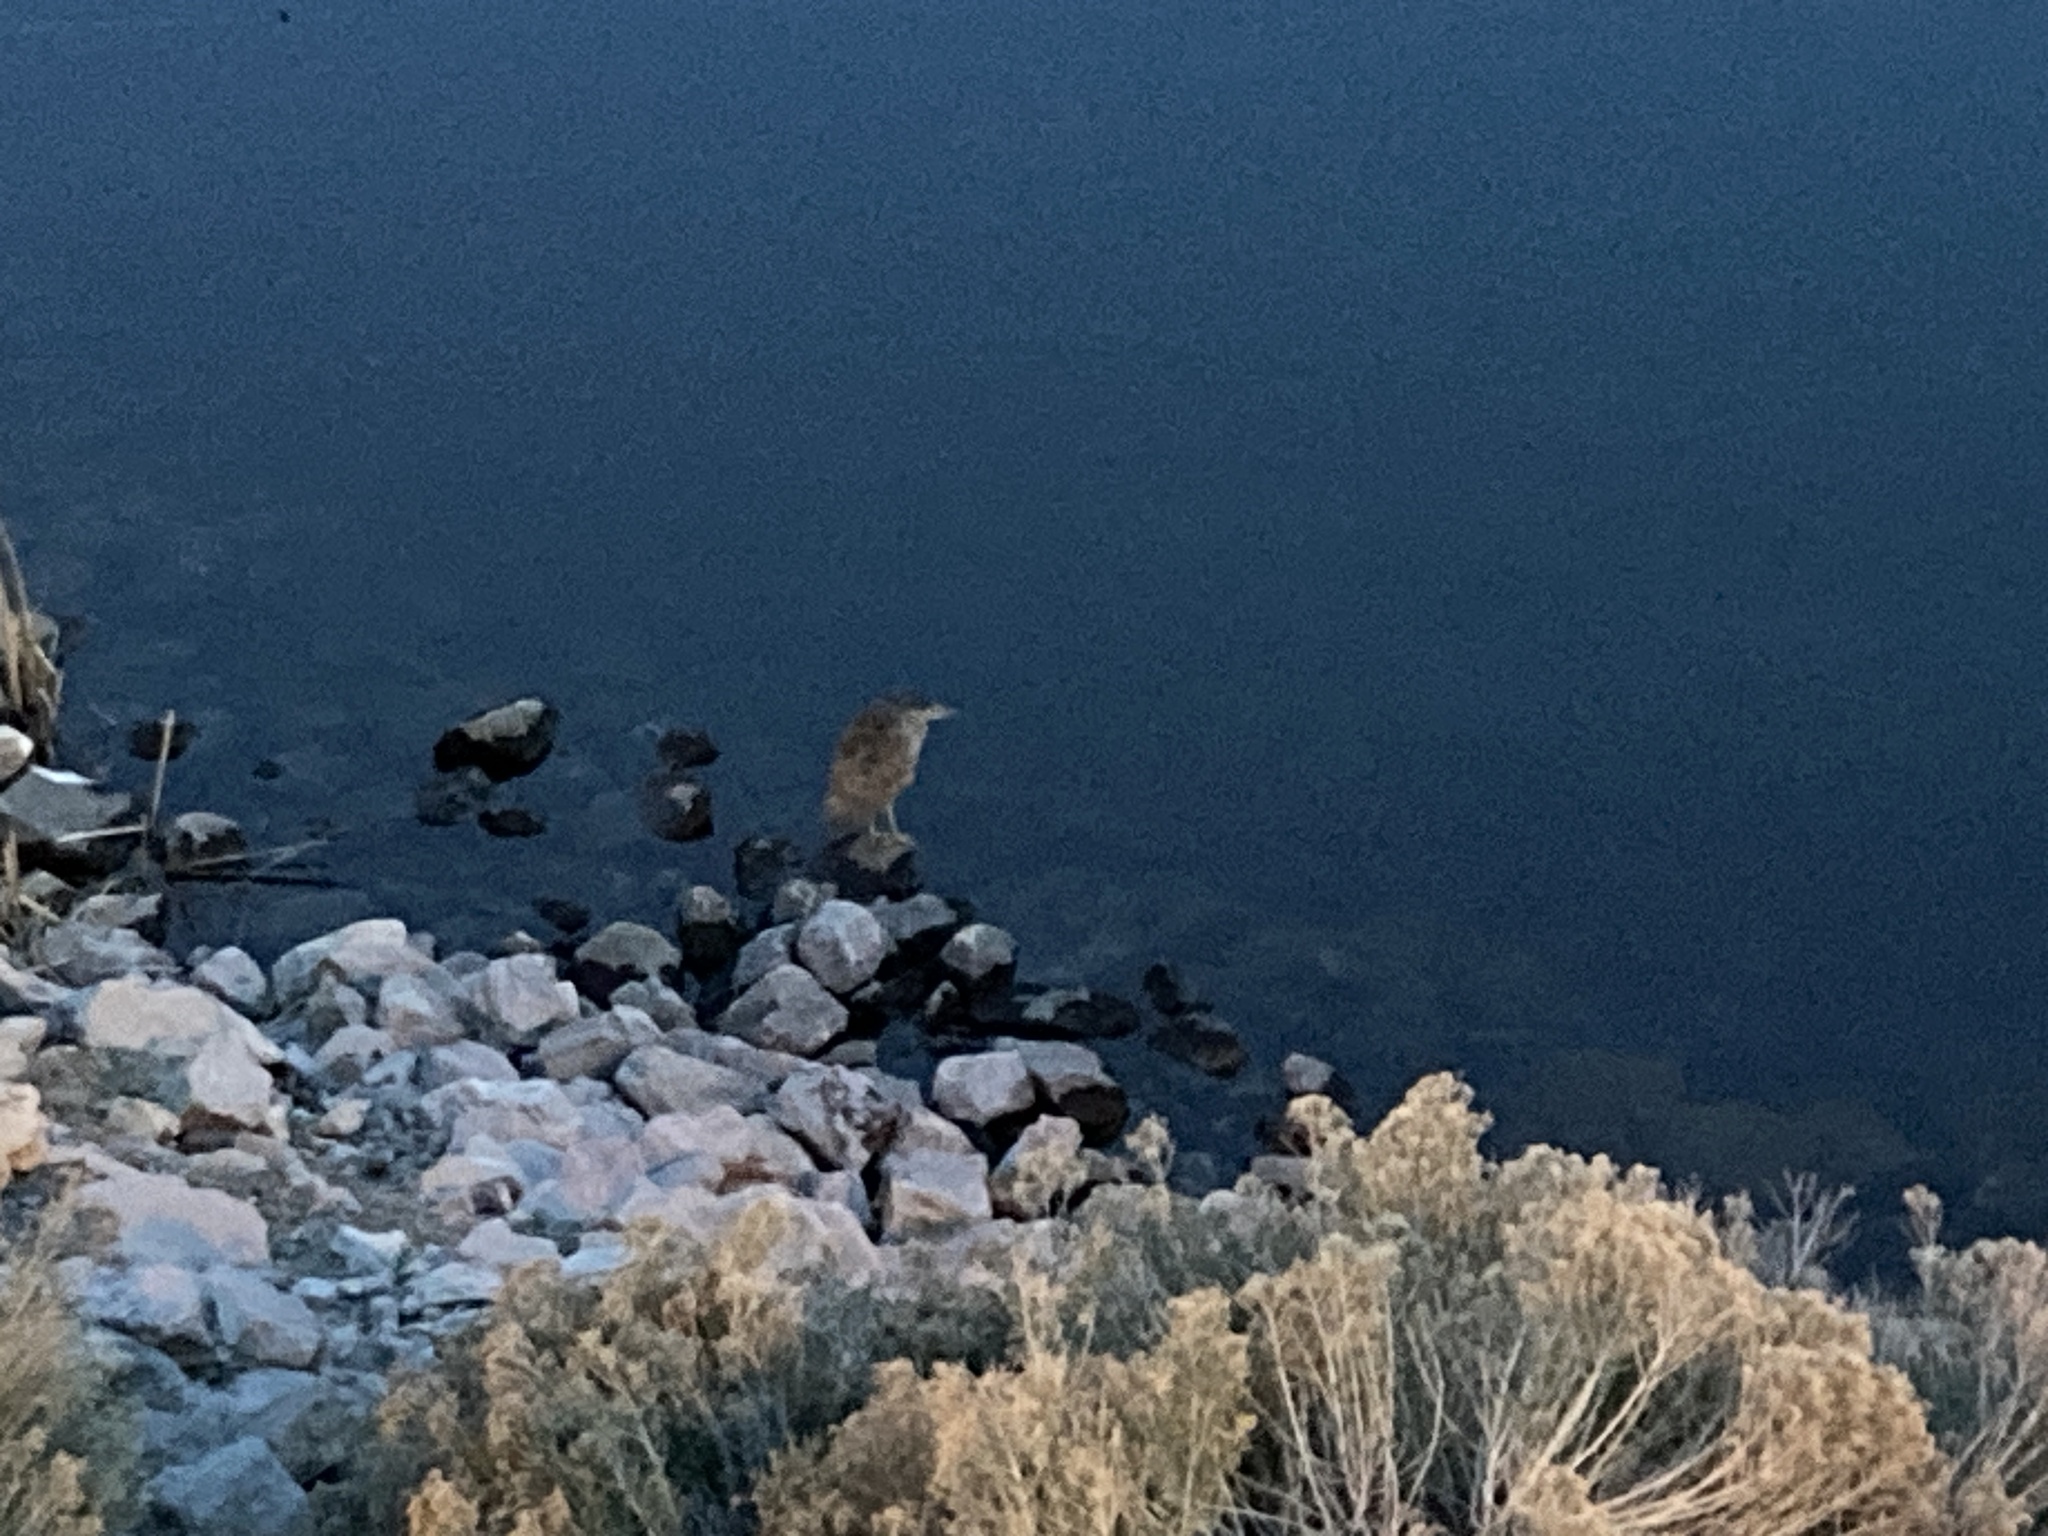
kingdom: Animalia
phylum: Chordata
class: Aves
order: Pelecaniformes
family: Ardeidae
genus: Nycticorax
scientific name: Nycticorax nycticorax
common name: Black-crowned night heron
